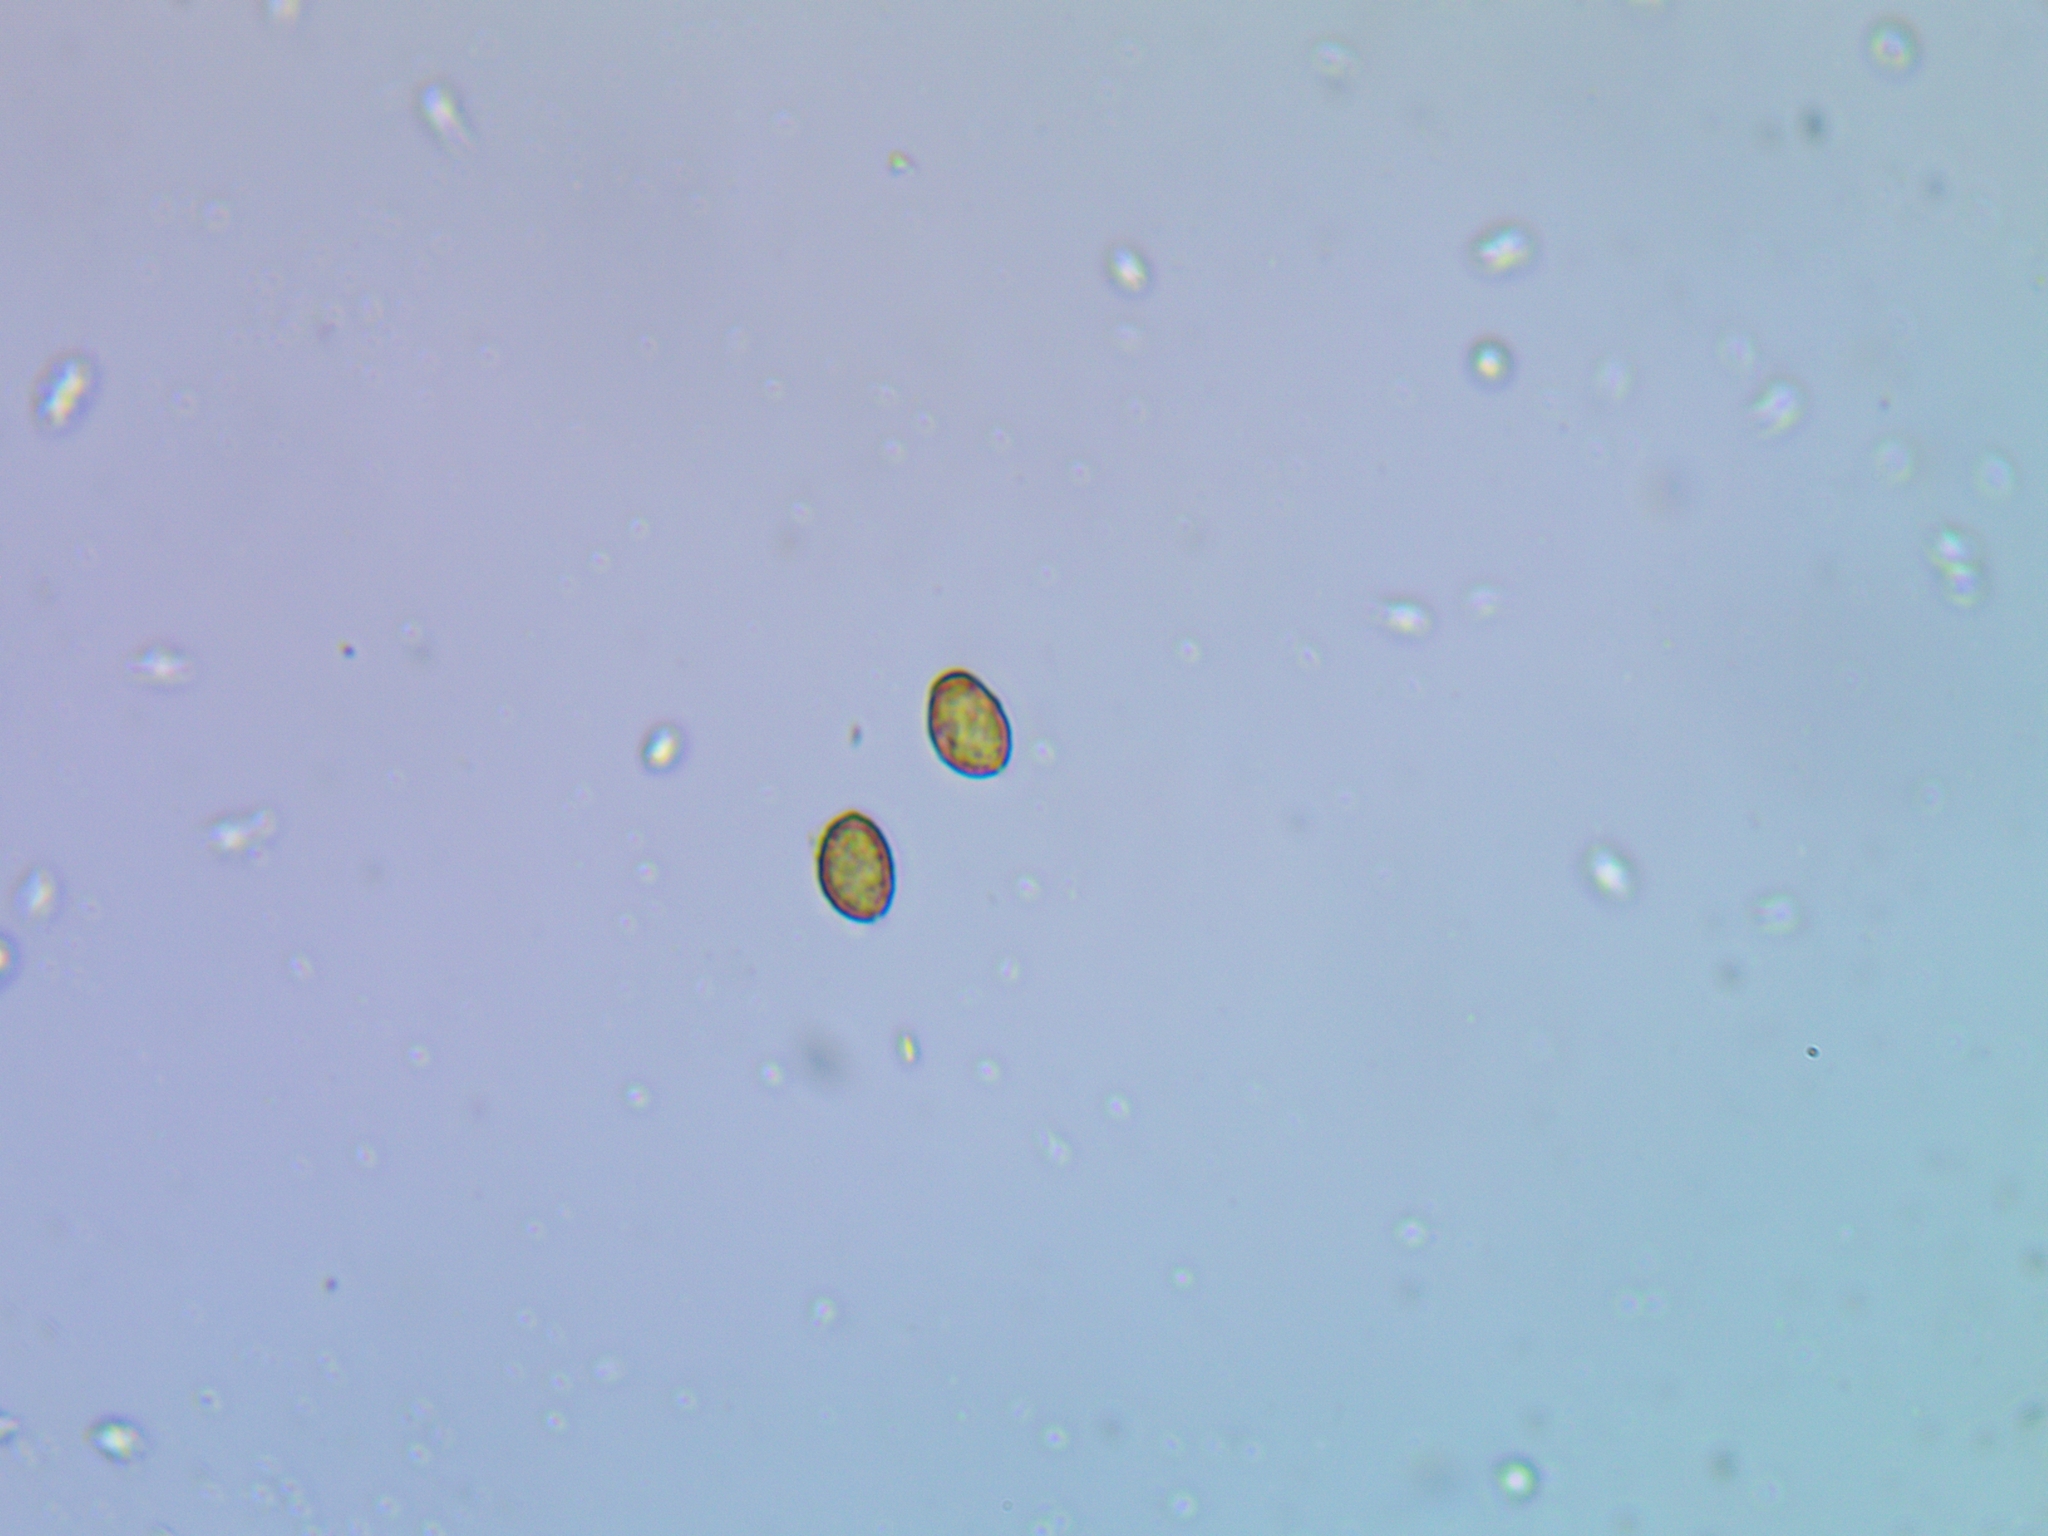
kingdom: Fungi
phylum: Basidiomycota
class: Agaricomycetes
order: Agaricales
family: Cortinariaceae
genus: Cortinarius
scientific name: Cortinarius acetosus
